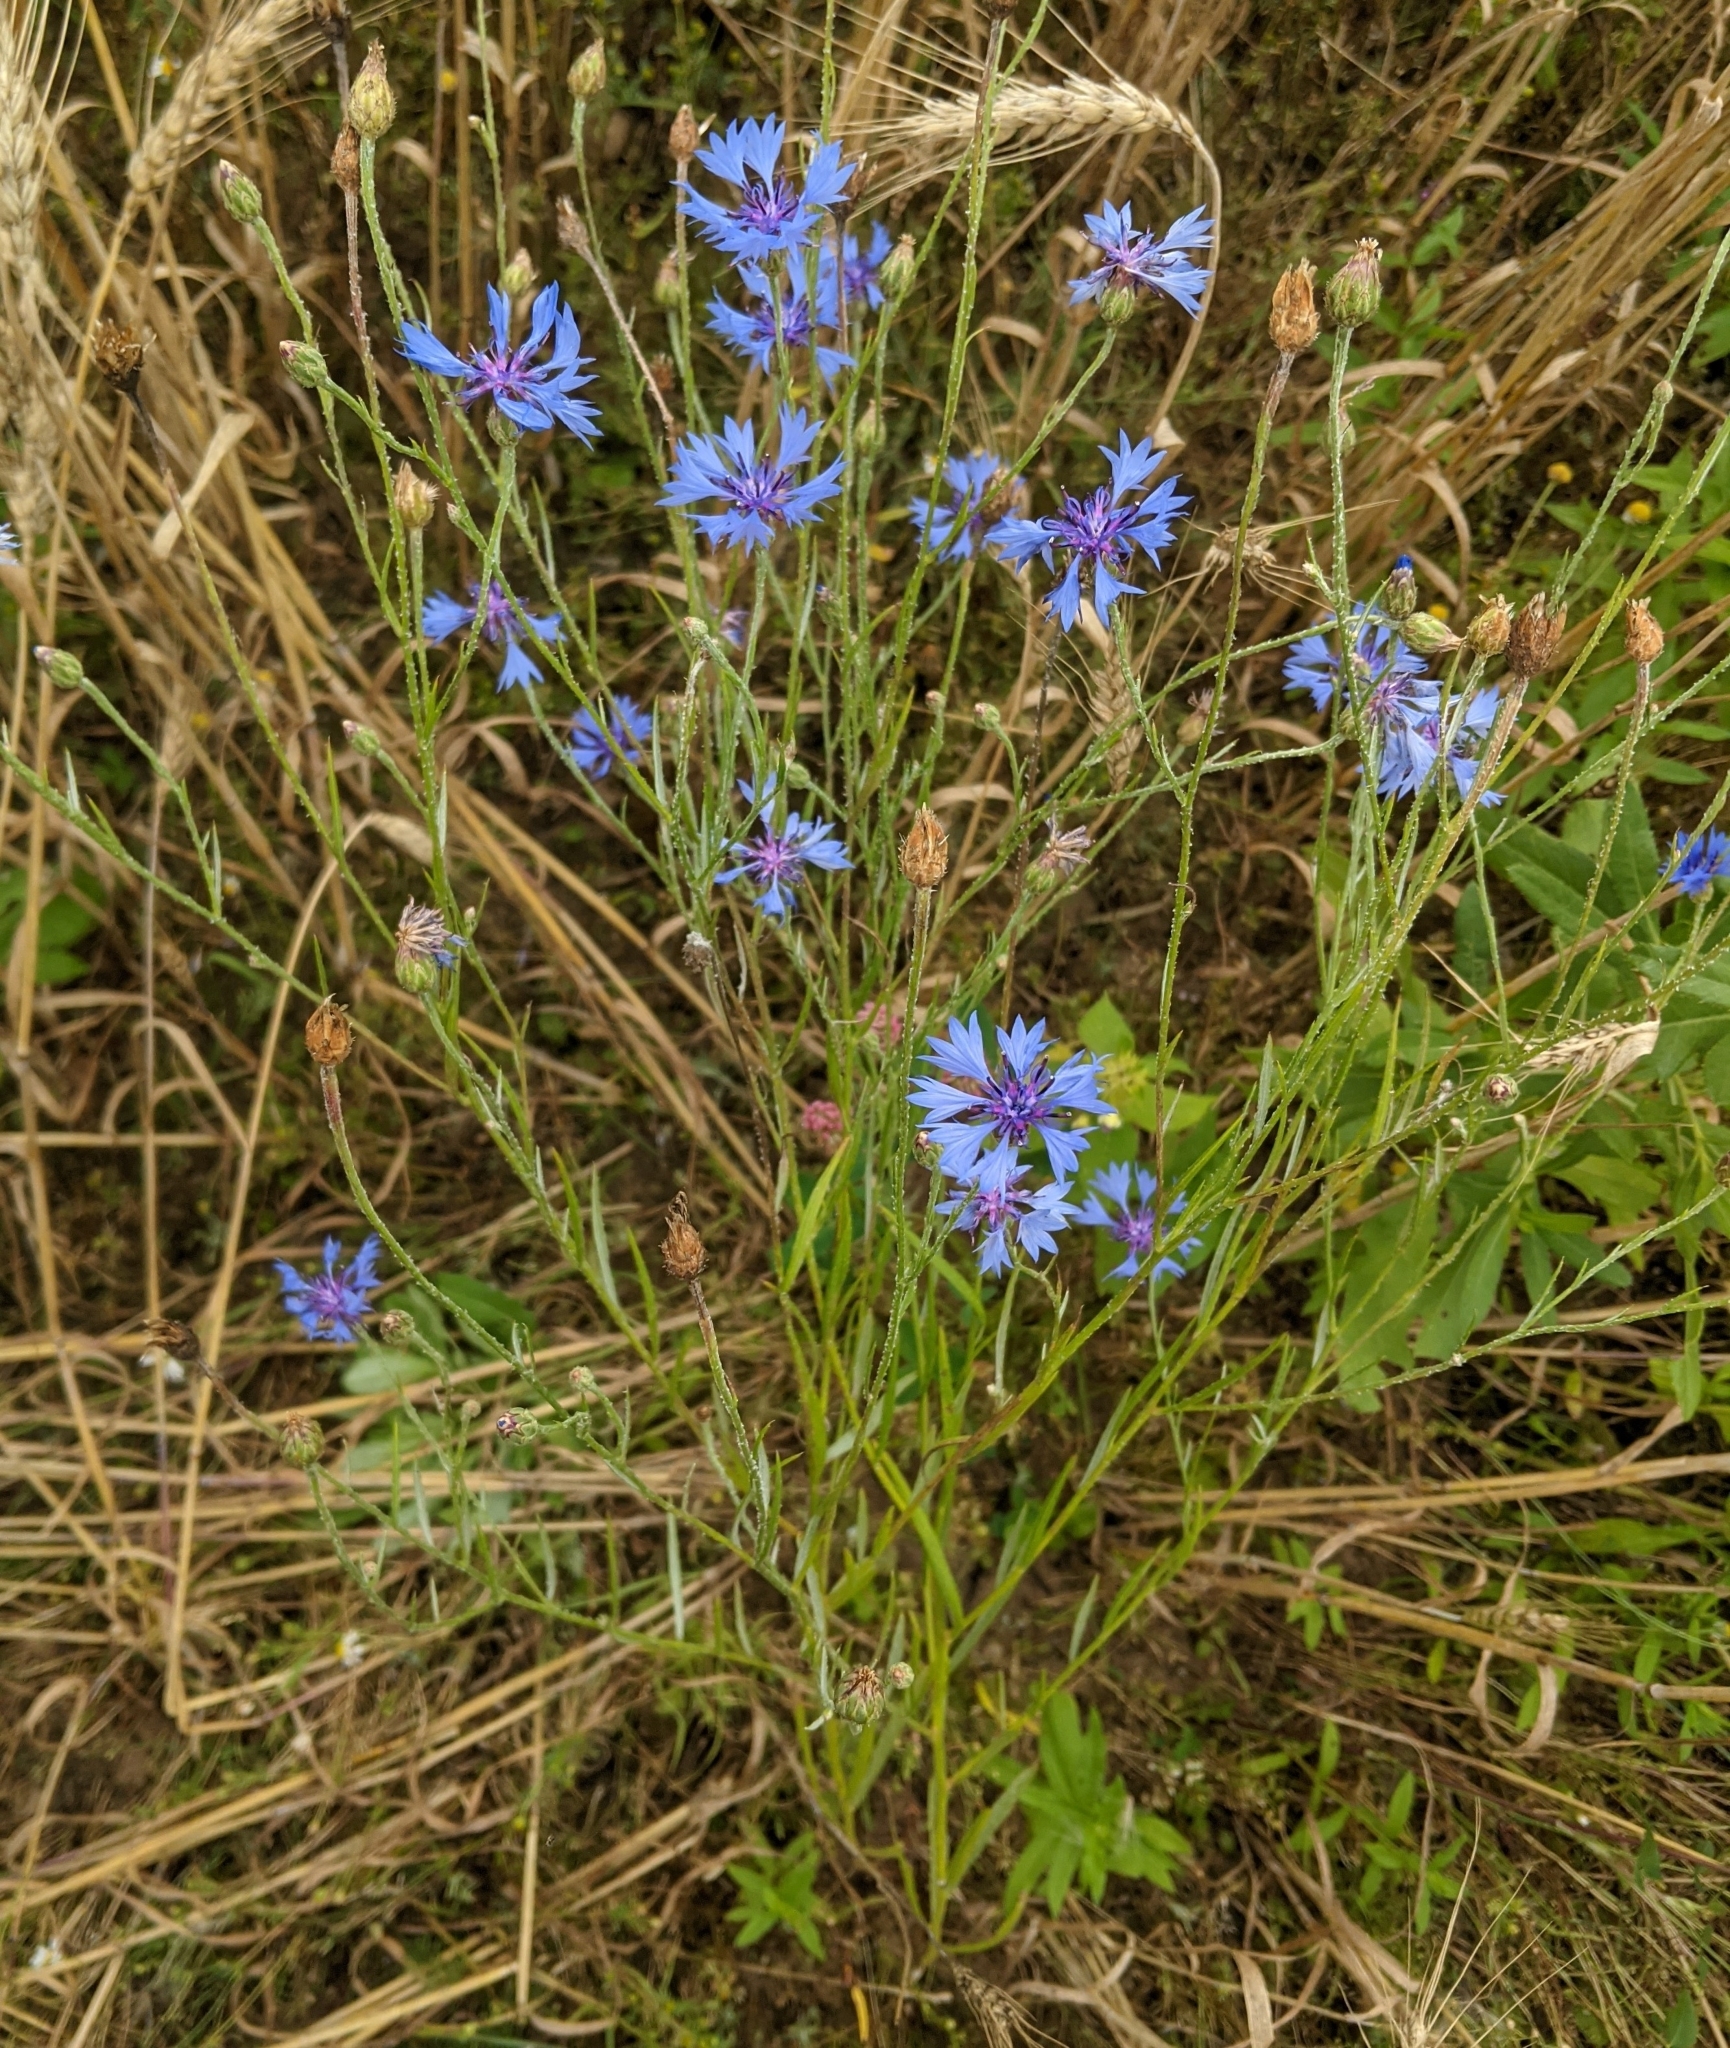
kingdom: Plantae
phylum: Tracheophyta
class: Magnoliopsida
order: Asterales
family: Asteraceae
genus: Centaurea
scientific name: Centaurea cyanus
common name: Cornflower
